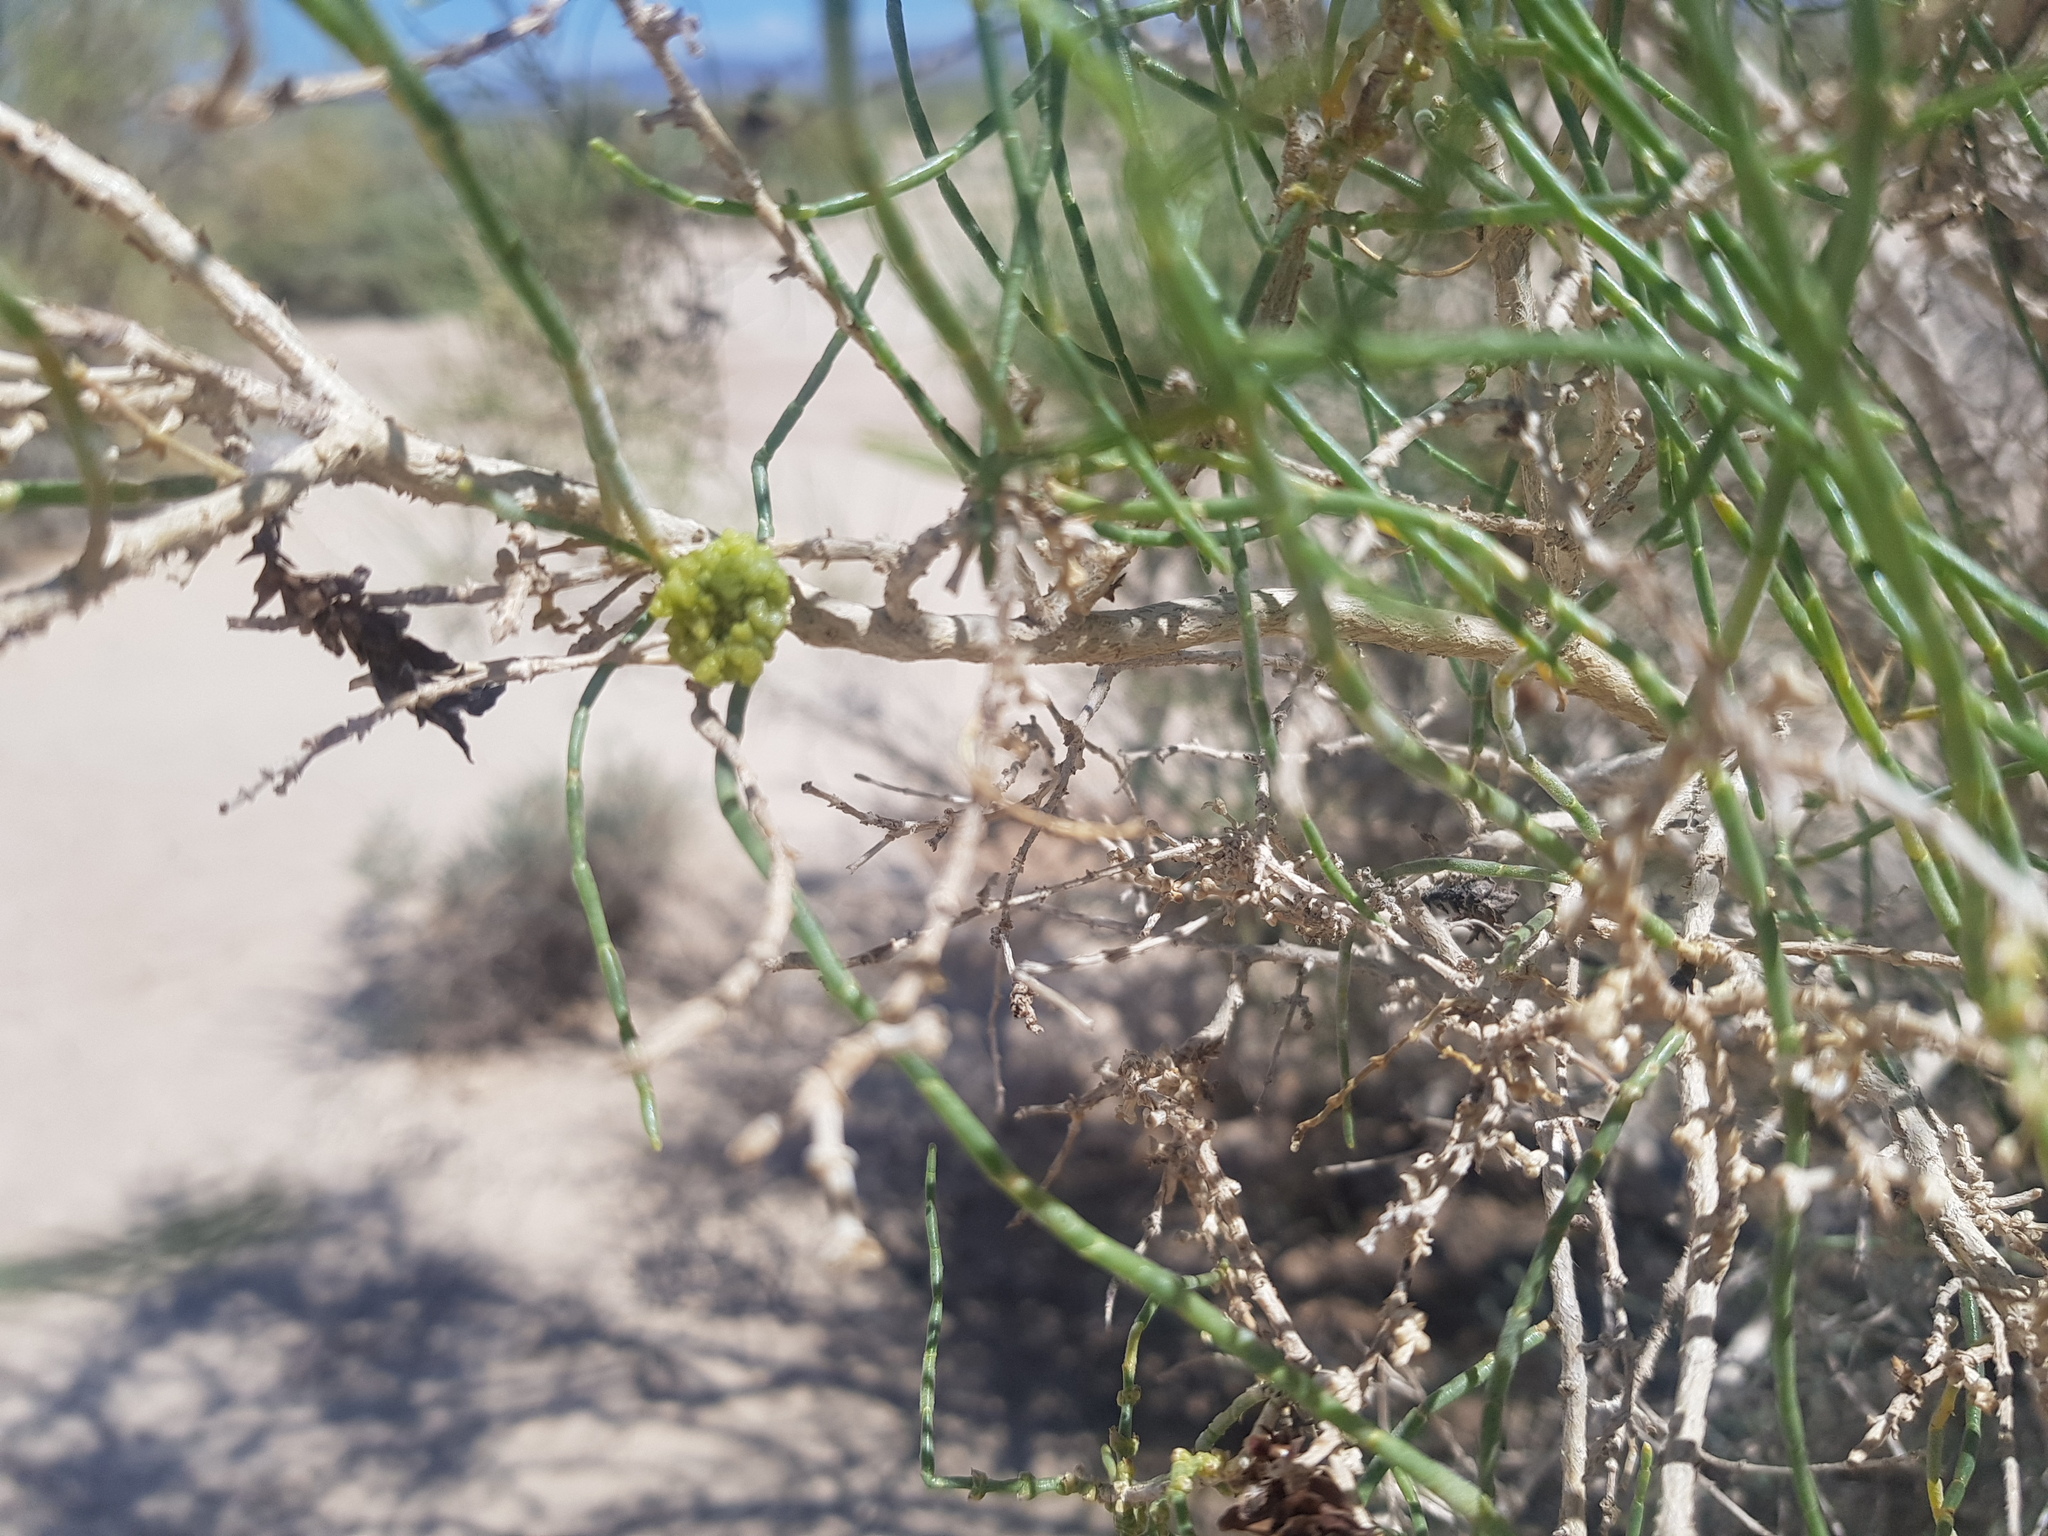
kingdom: Plantae
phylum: Tracheophyta
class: Magnoliopsida
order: Caryophyllales
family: Amaranthaceae
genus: Haloxylon
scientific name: Haloxylon ammodendron
